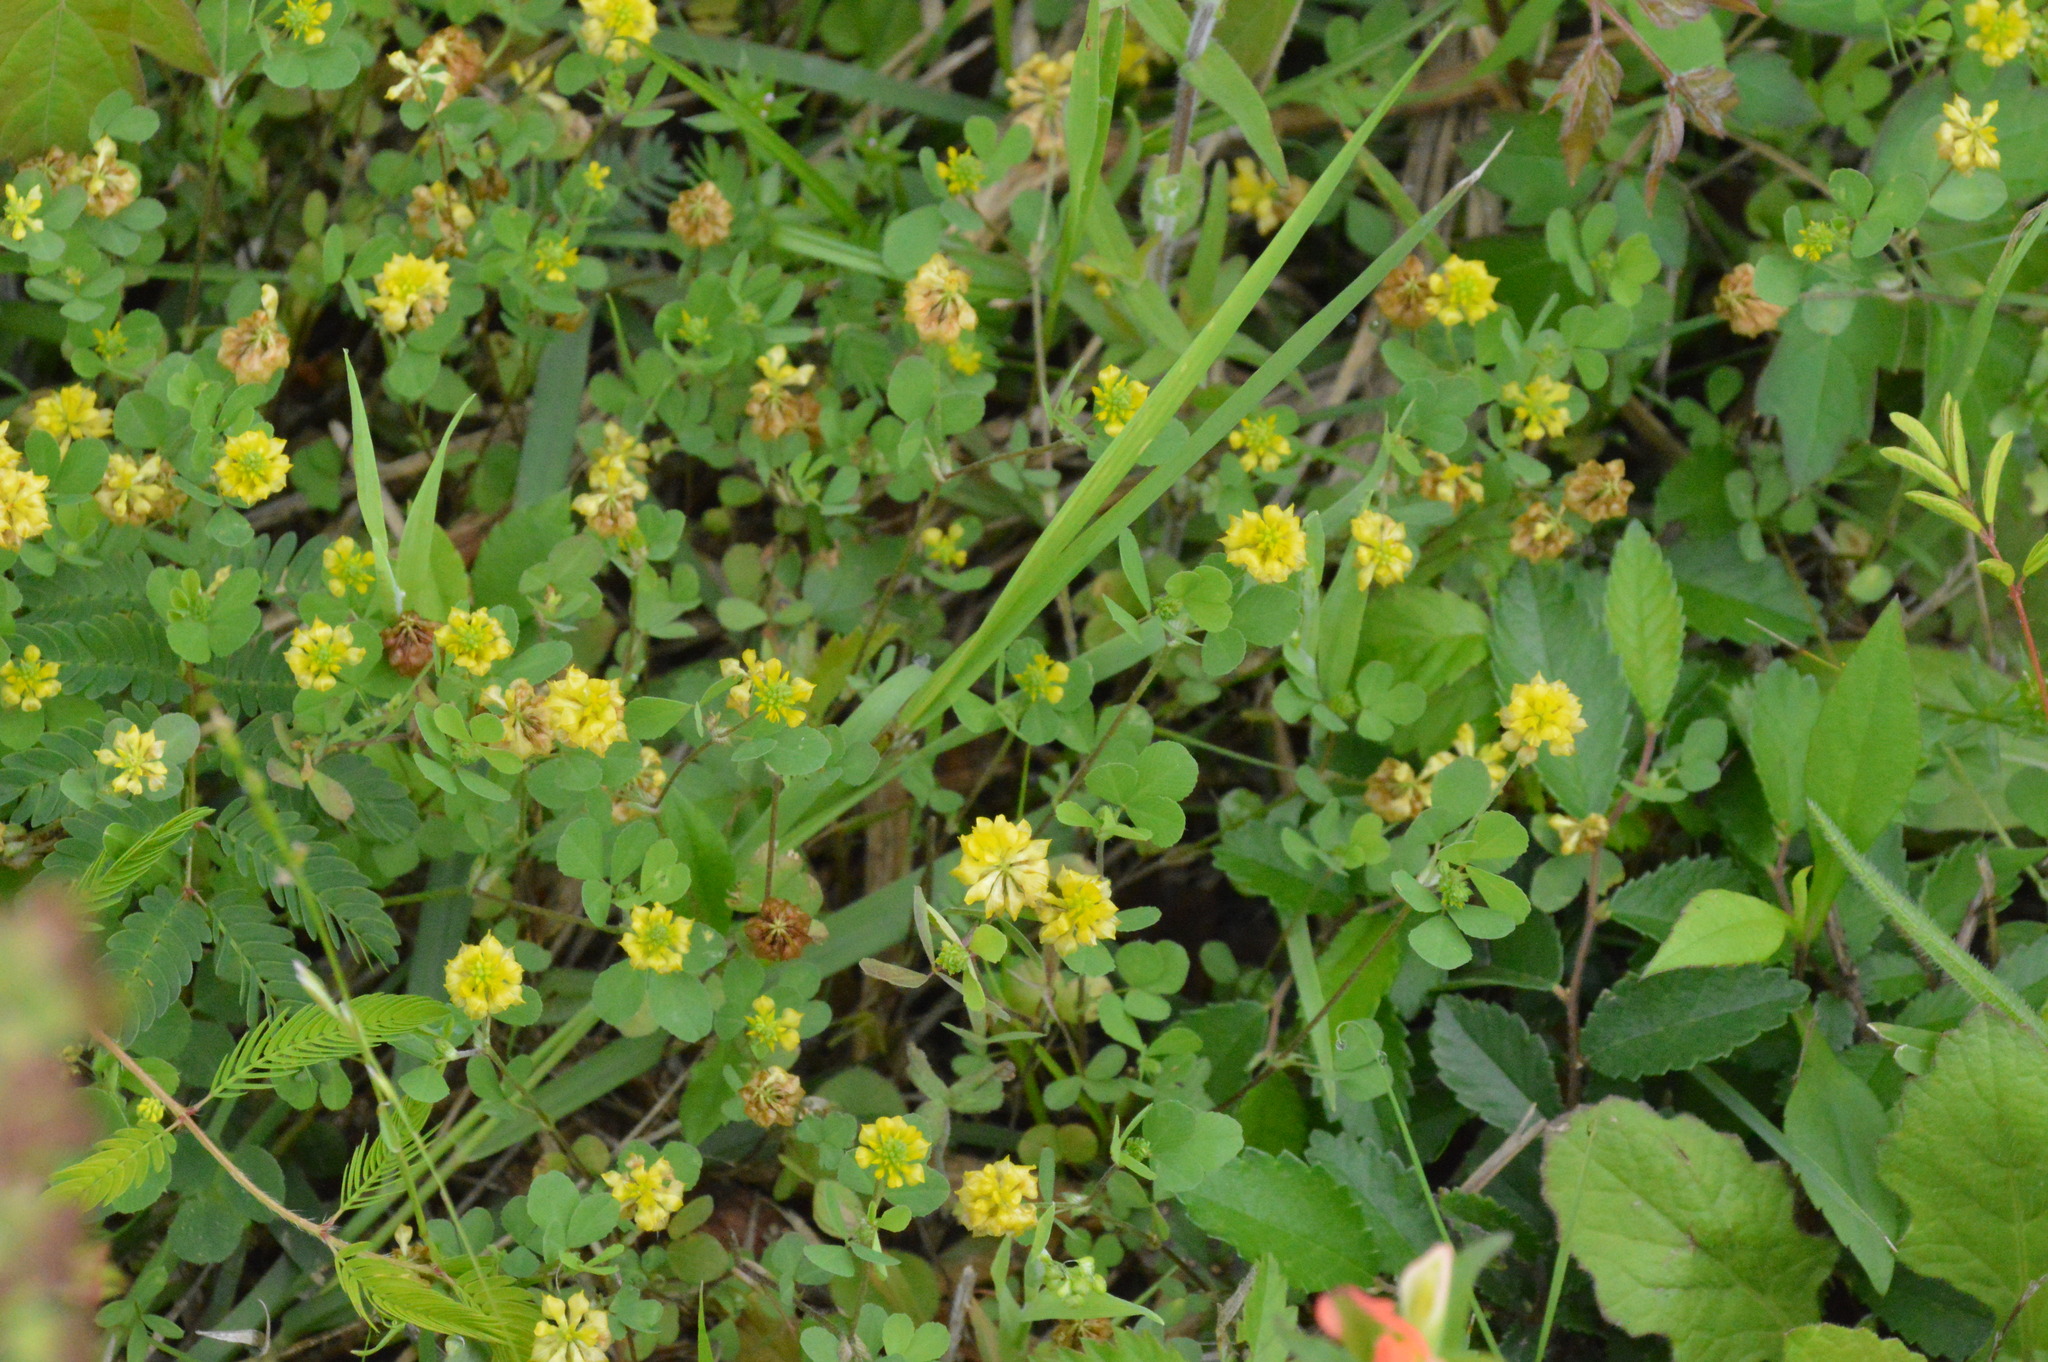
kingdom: Plantae
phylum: Tracheophyta
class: Magnoliopsida
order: Fabales
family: Fabaceae
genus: Trifolium
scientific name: Trifolium campestre
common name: Field clover
